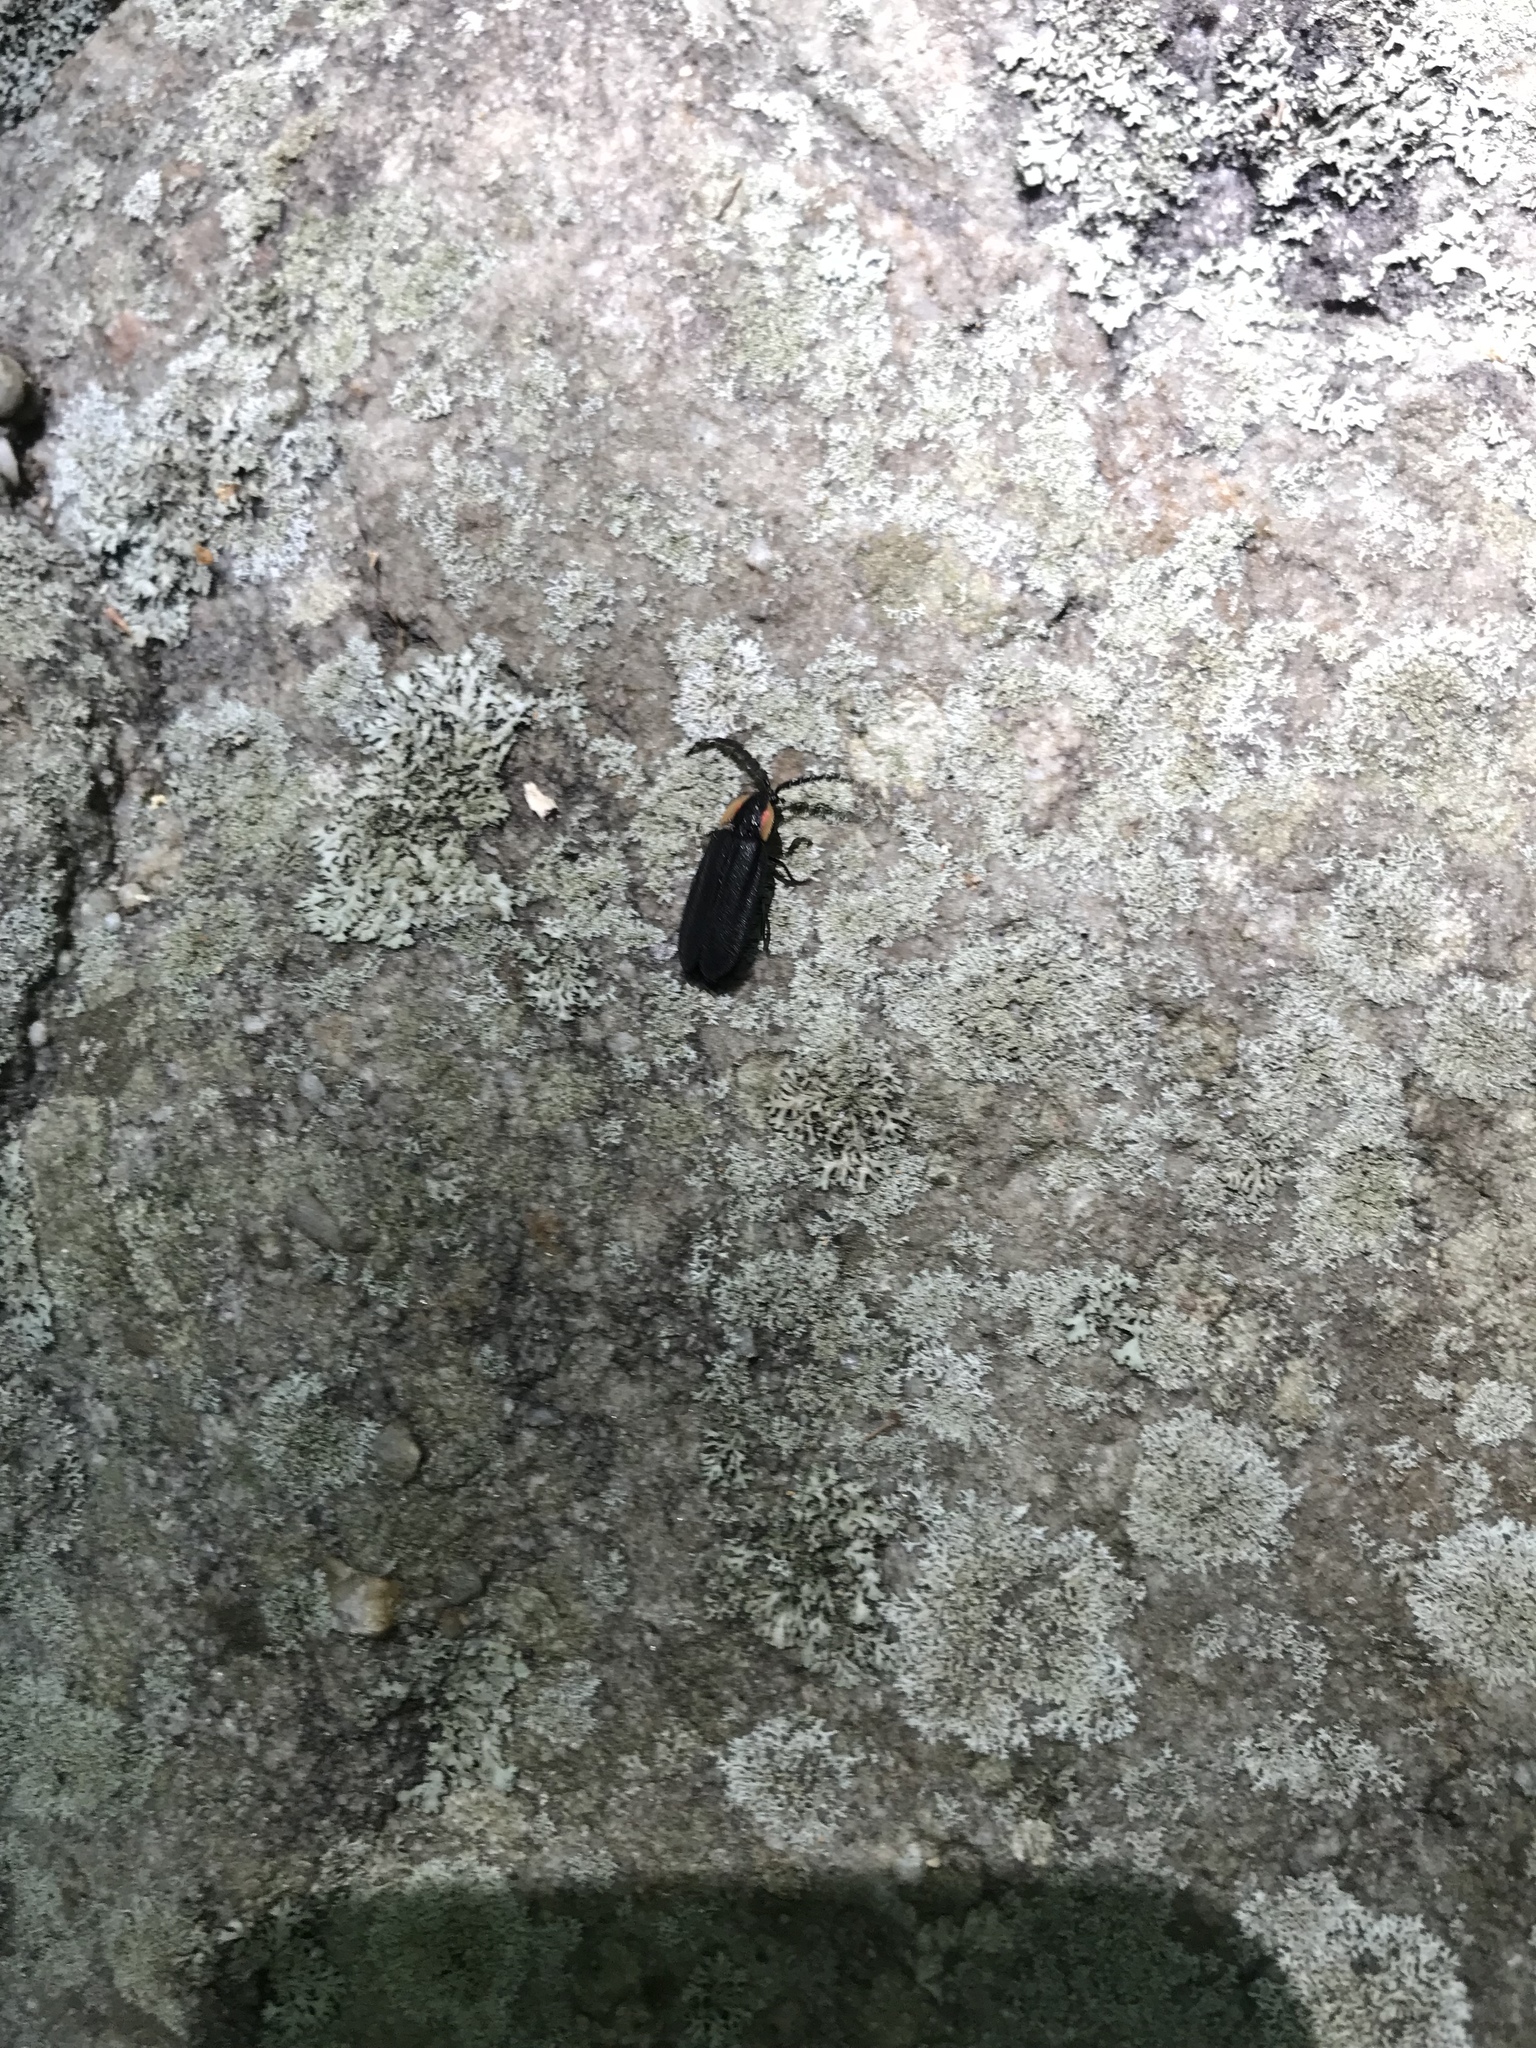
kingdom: Animalia
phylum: Arthropoda
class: Insecta
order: Coleoptera
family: Lampyridae
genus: Lucidota
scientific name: Lucidota atra
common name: Black firefly
